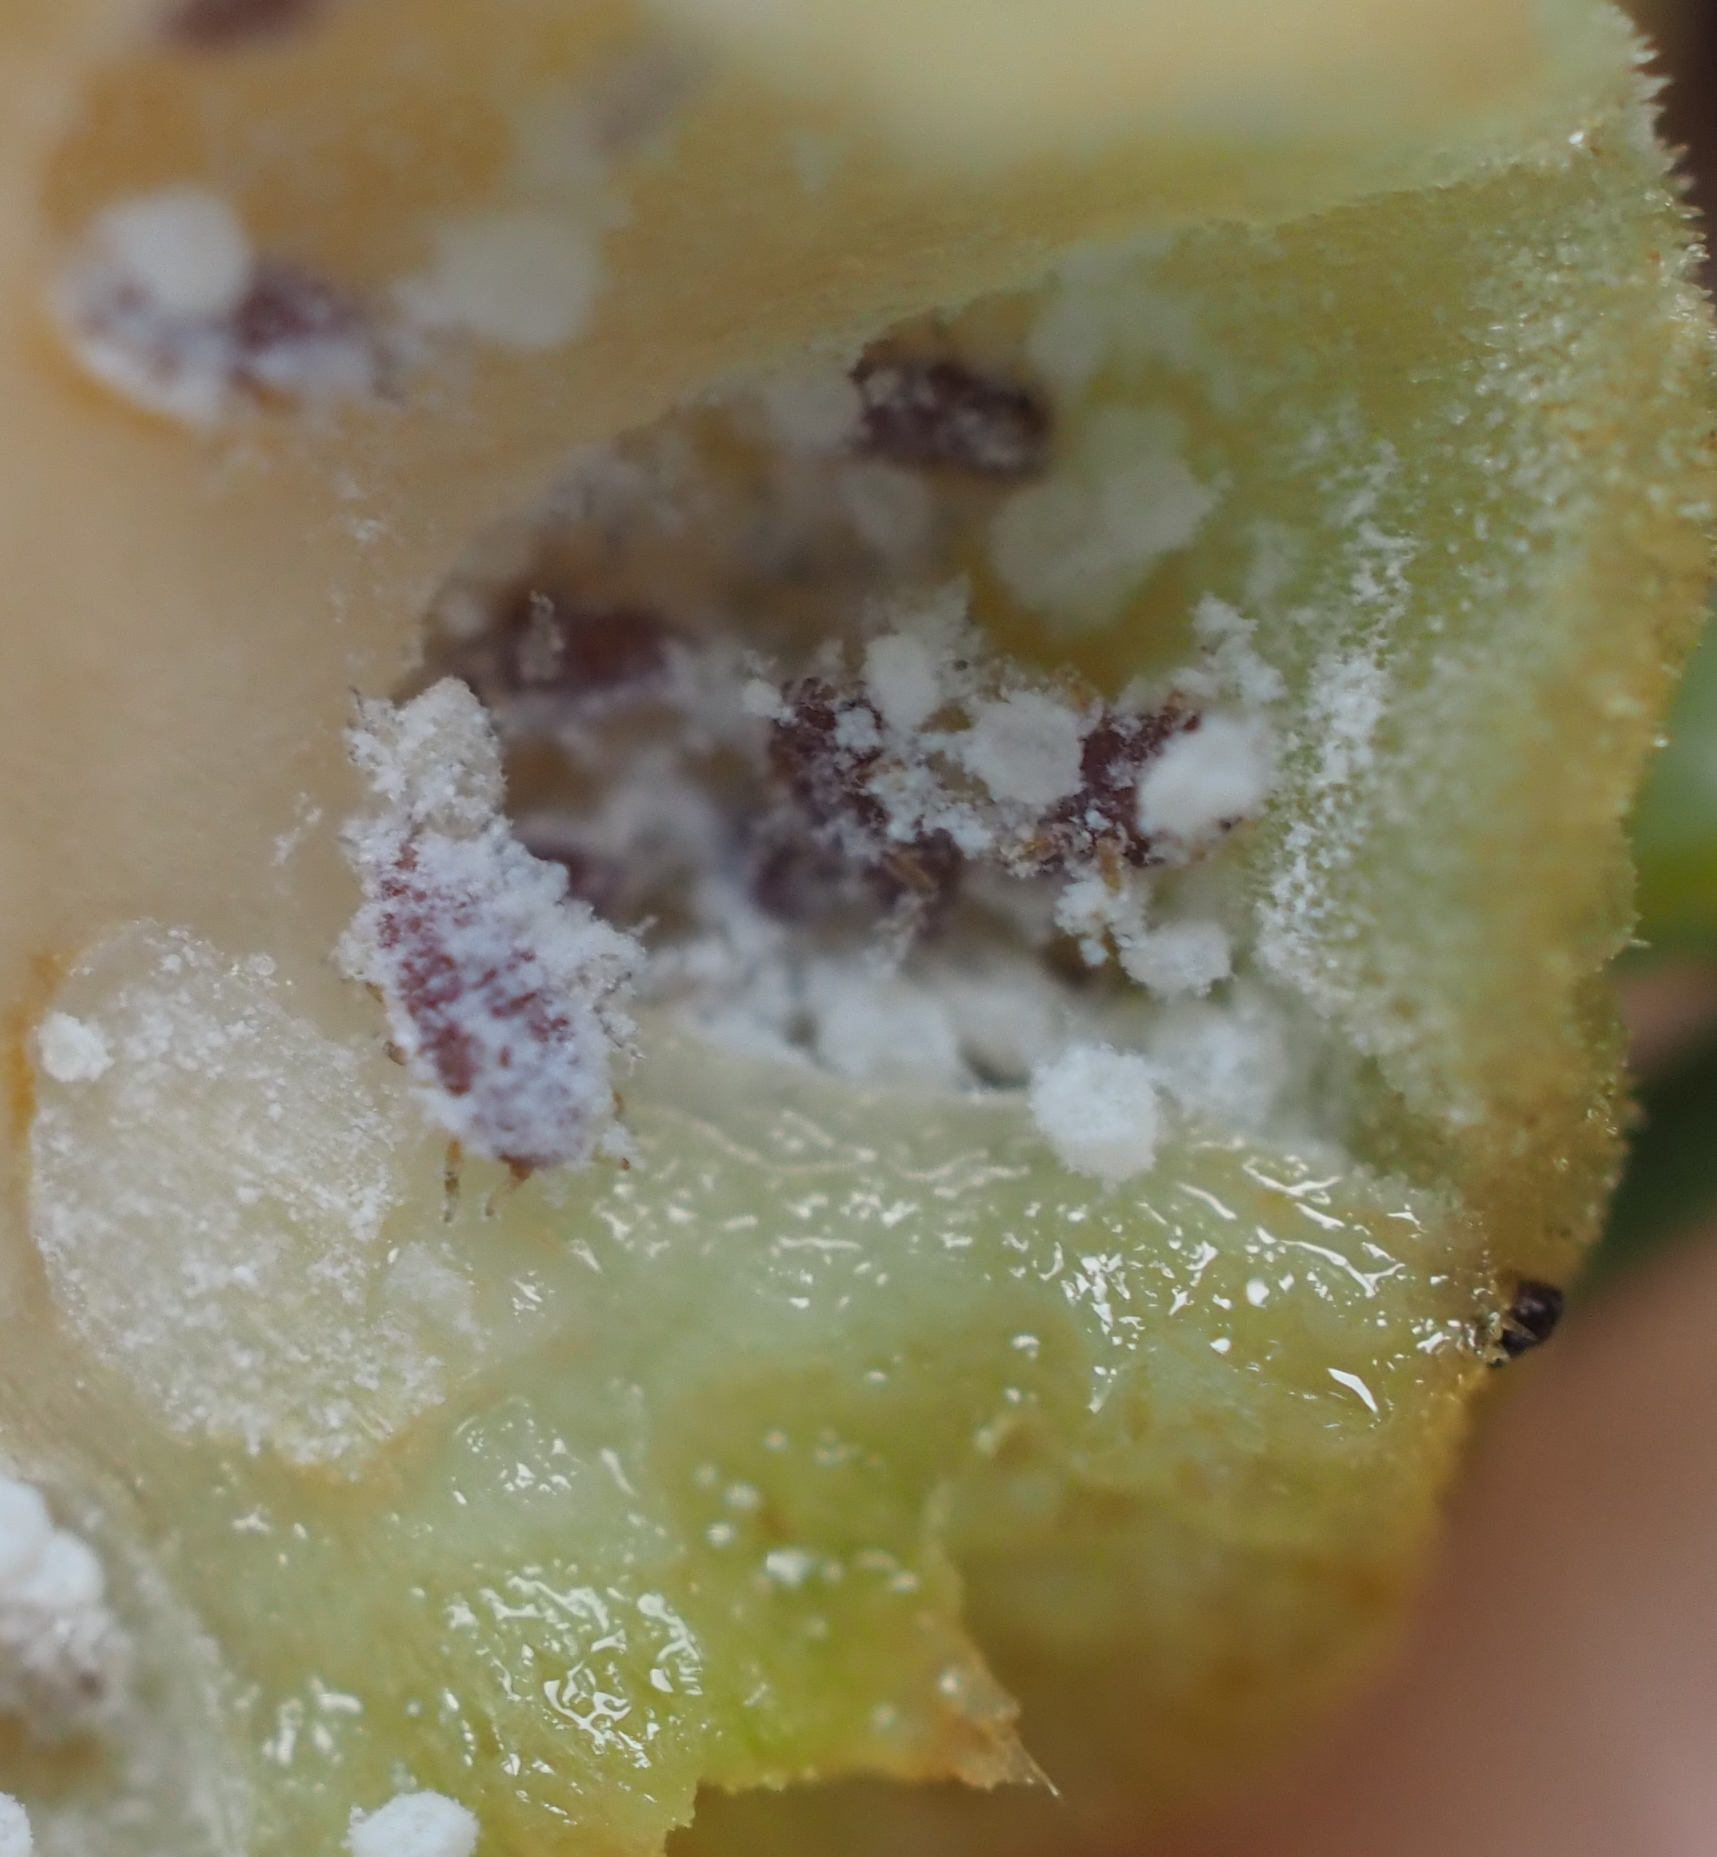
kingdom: Animalia
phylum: Arthropoda
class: Insecta
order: Hemiptera
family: Adelgidae
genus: Adelges
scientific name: Adelges abietis
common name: Eastern spruce gall adelgid
